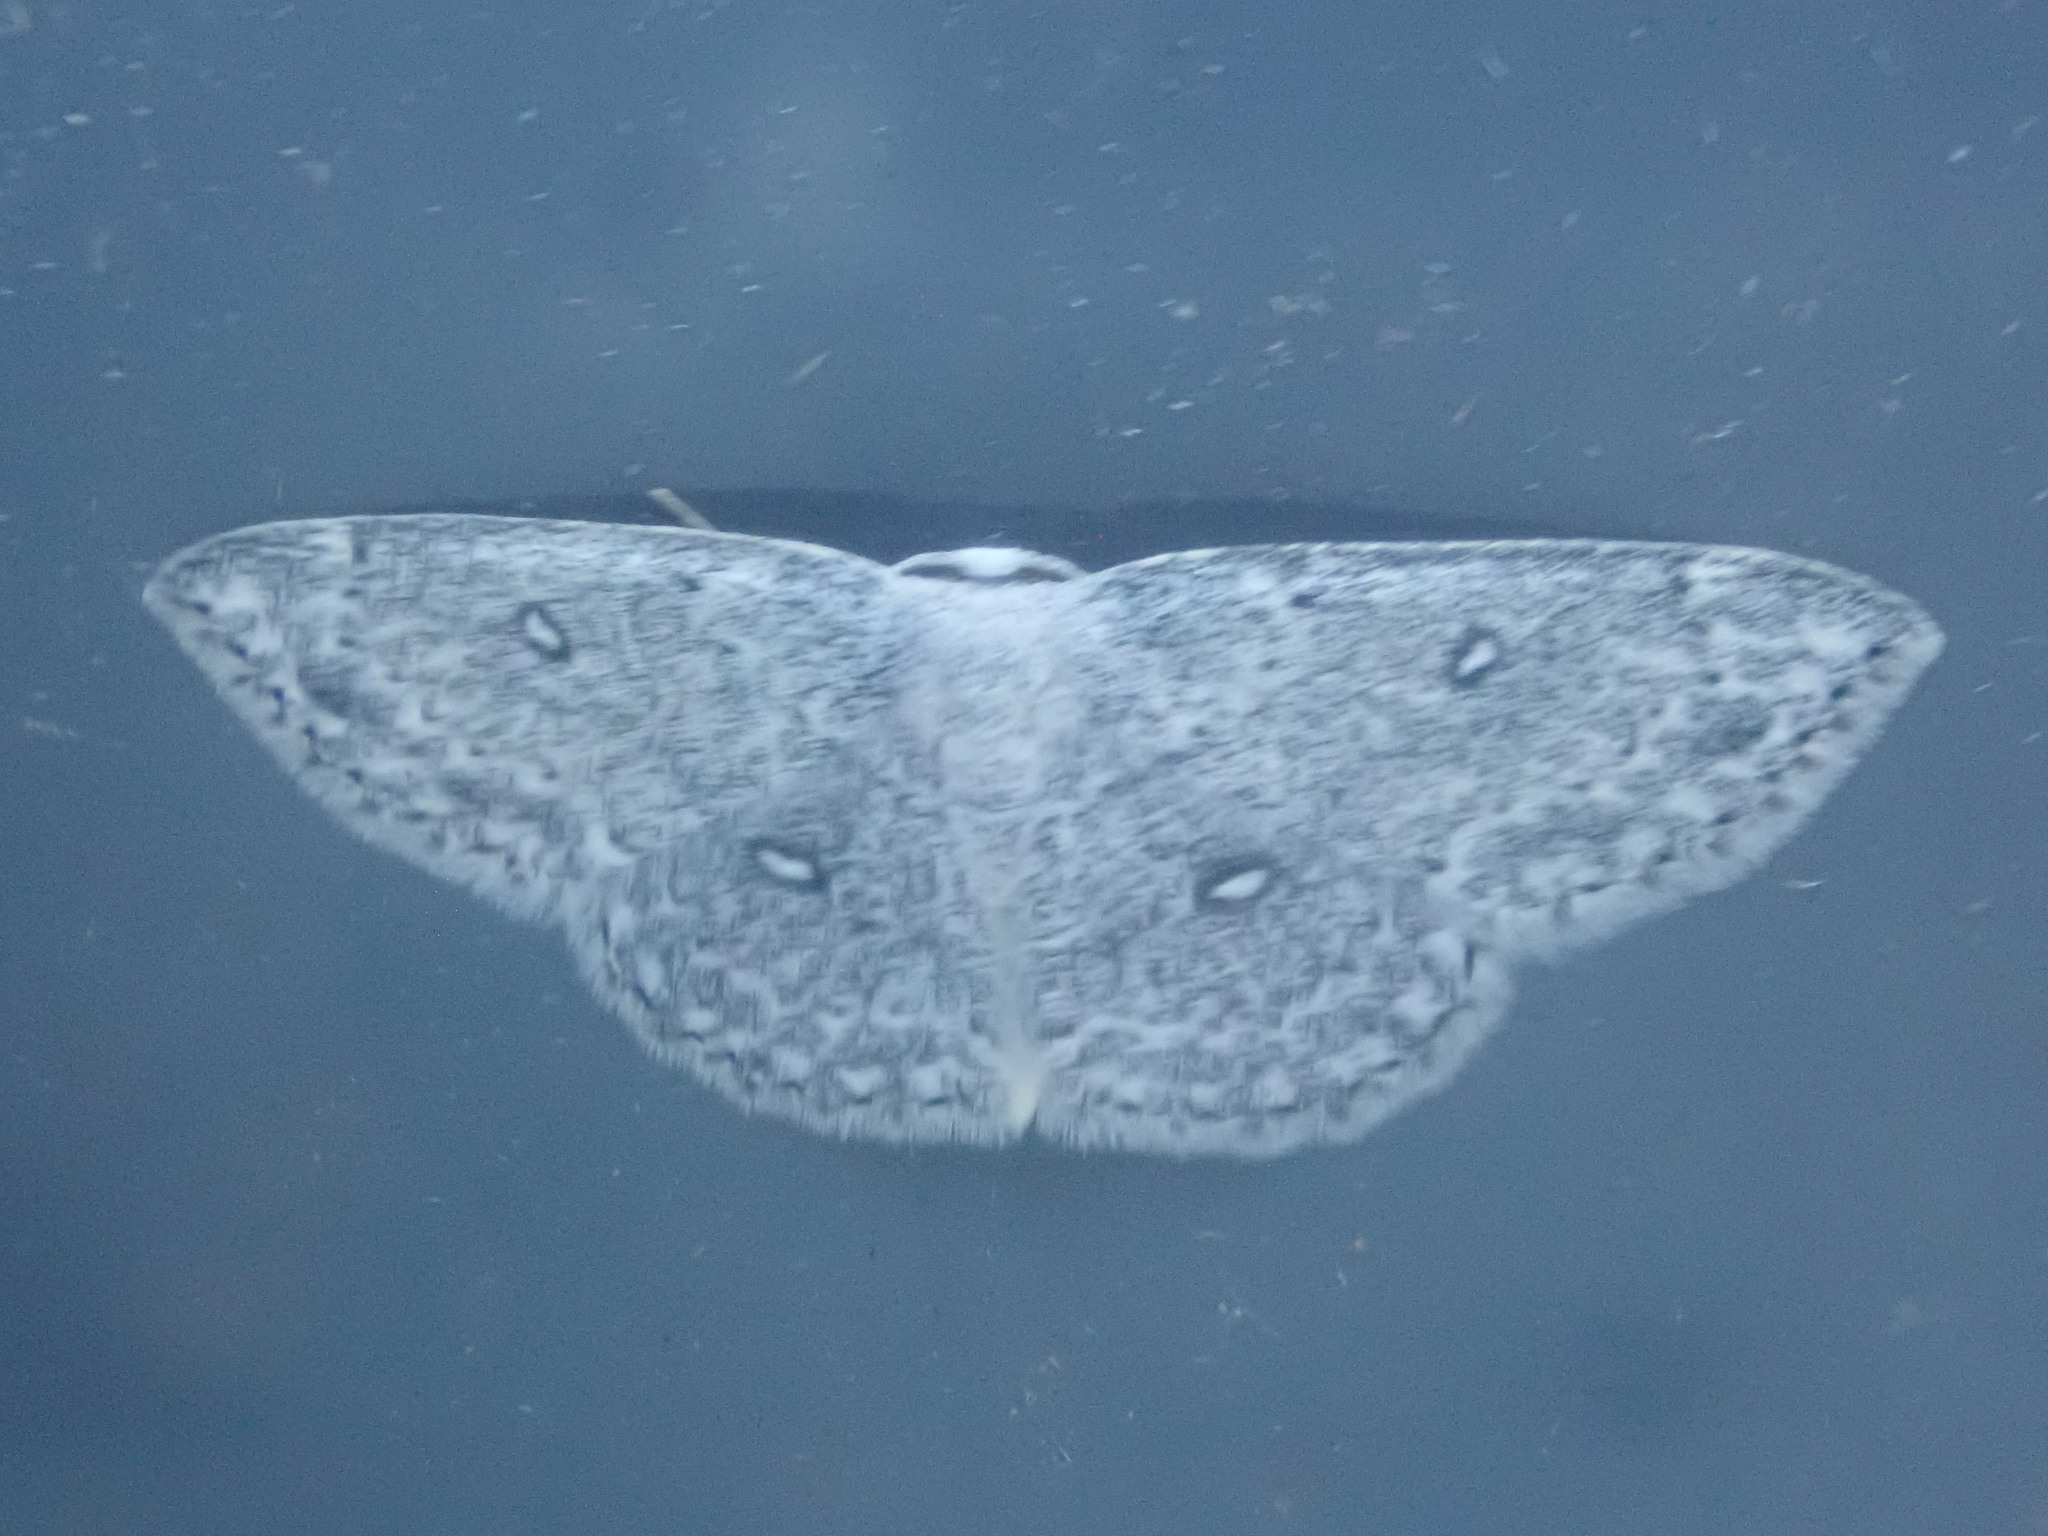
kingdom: Animalia
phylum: Arthropoda
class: Insecta
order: Lepidoptera
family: Geometridae
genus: Cyclophora
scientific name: Cyclophora pendulinaria
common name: Sweet fern geometer
